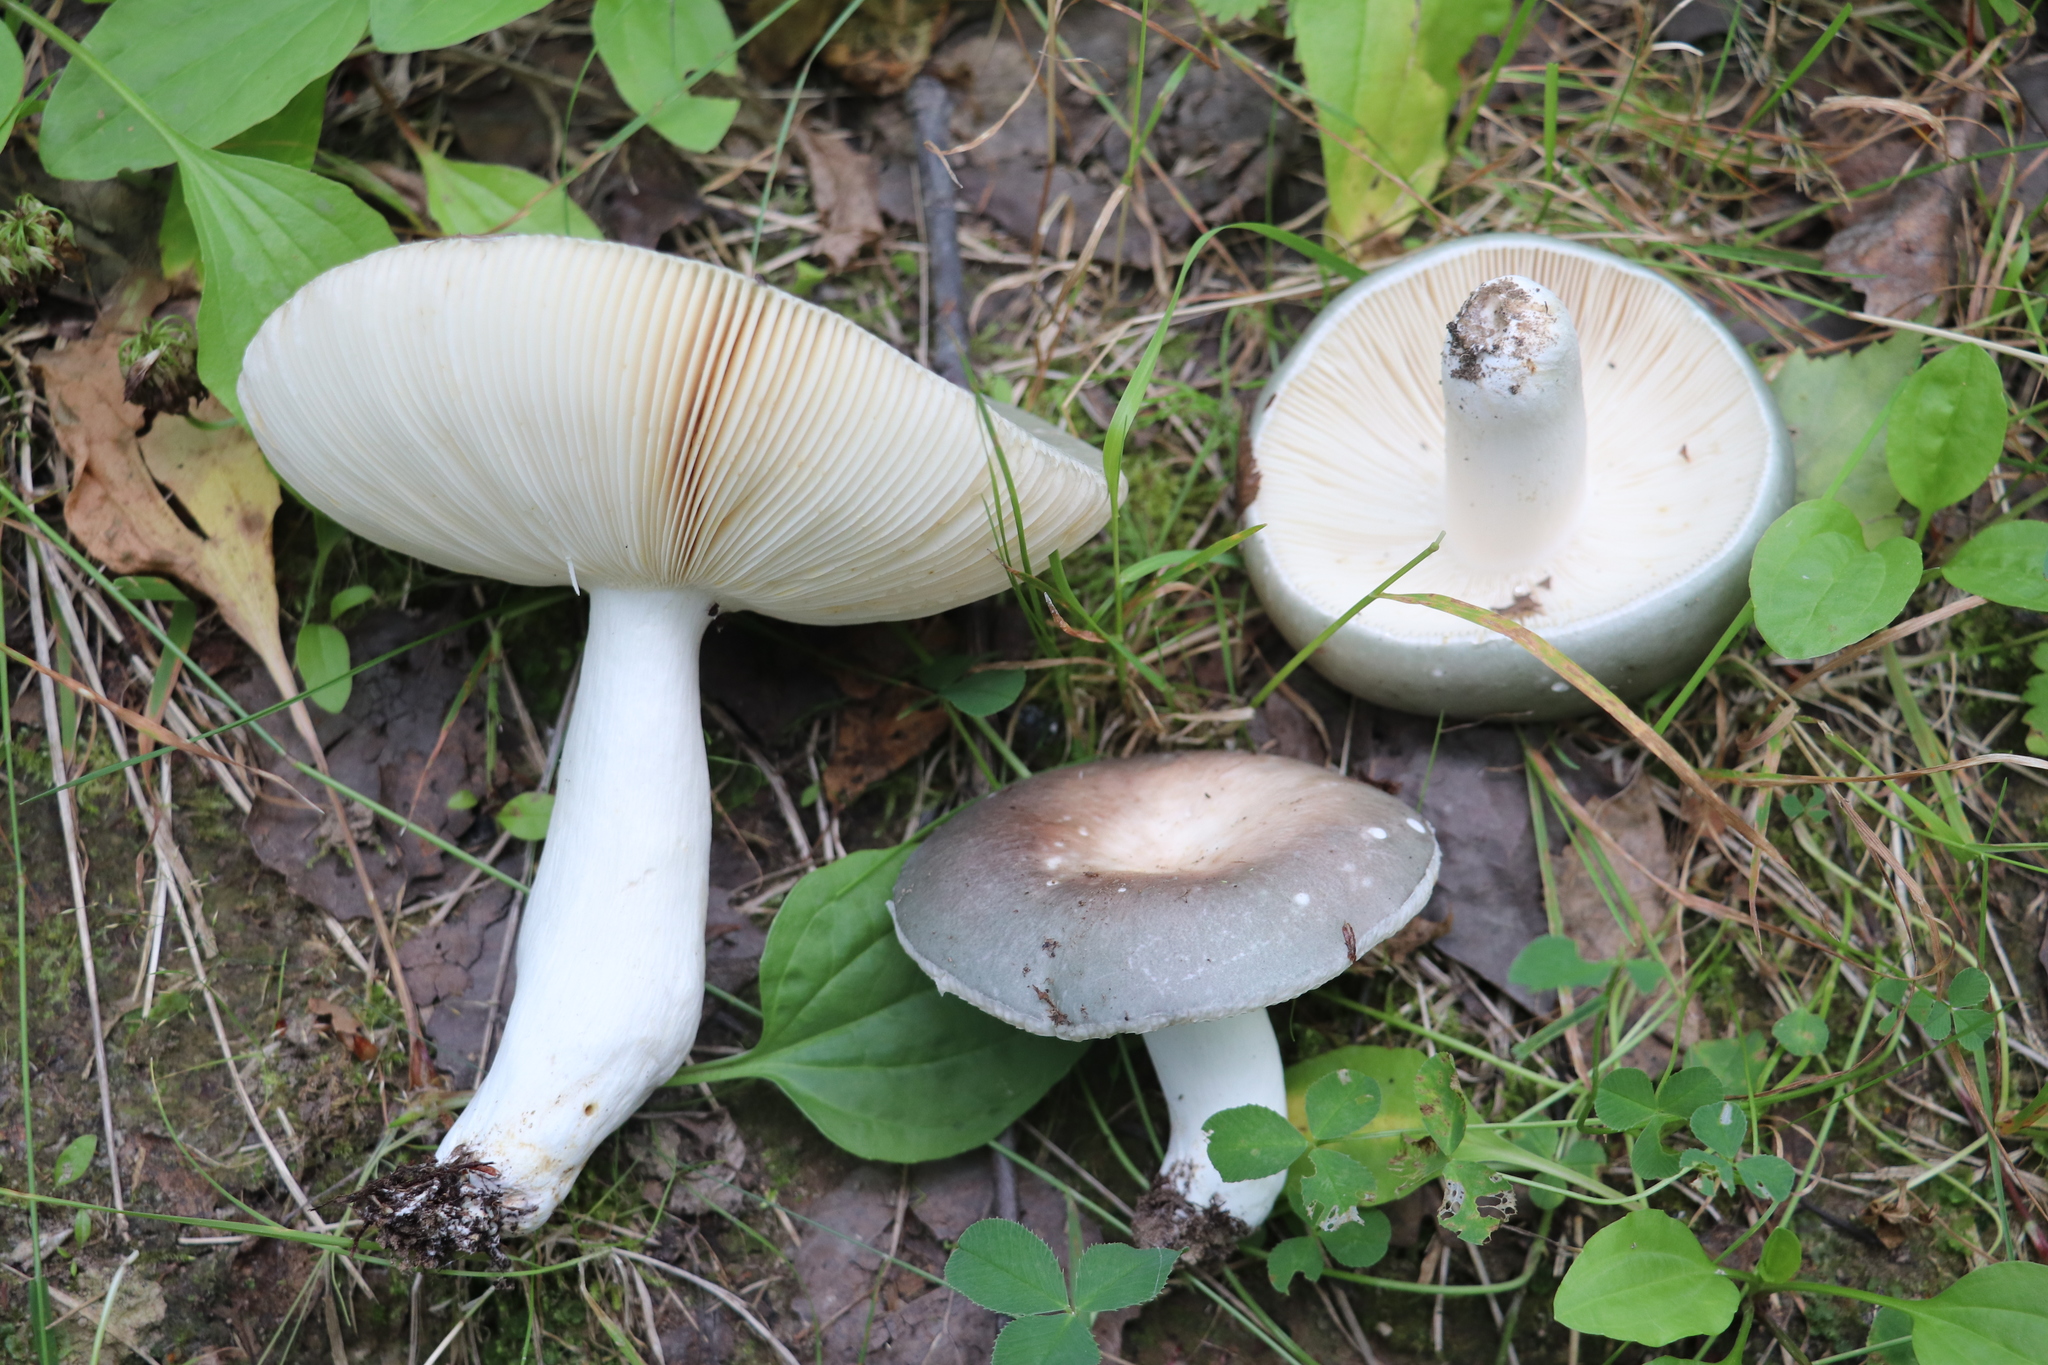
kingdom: Fungi
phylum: Basidiomycota
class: Agaricomycetes
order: Russulales
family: Russulaceae
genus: Russula
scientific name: Russula vesca
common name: Bare-toothed russula
